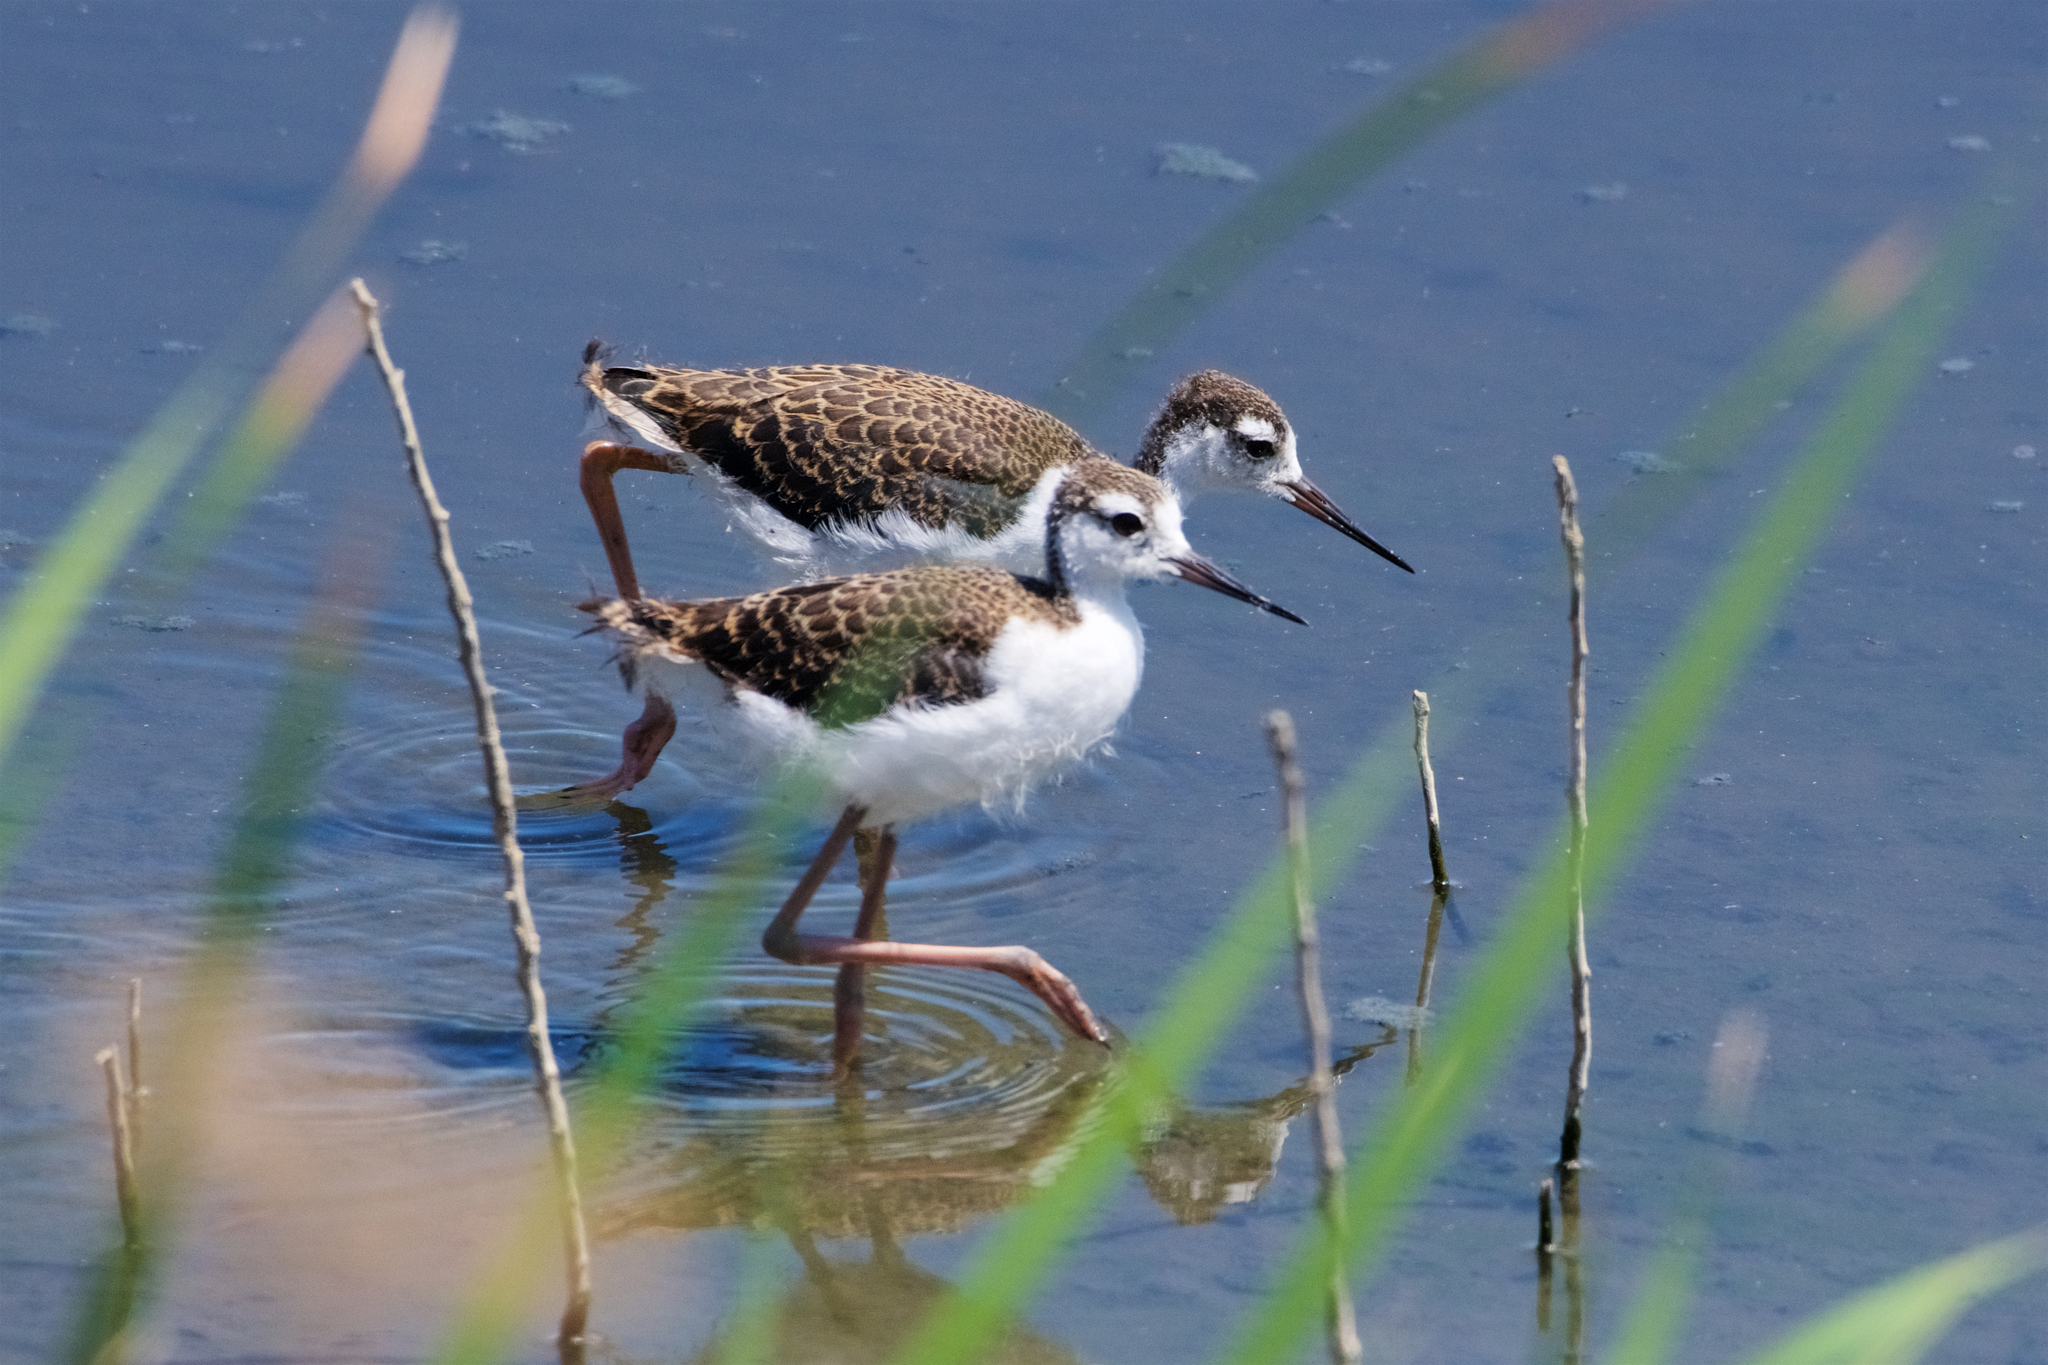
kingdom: Animalia
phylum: Chordata
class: Aves
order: Charadriiformes
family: Recurvirostridae
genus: Himantopus
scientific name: Himantopus mexicanus
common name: Black-necked stilt
